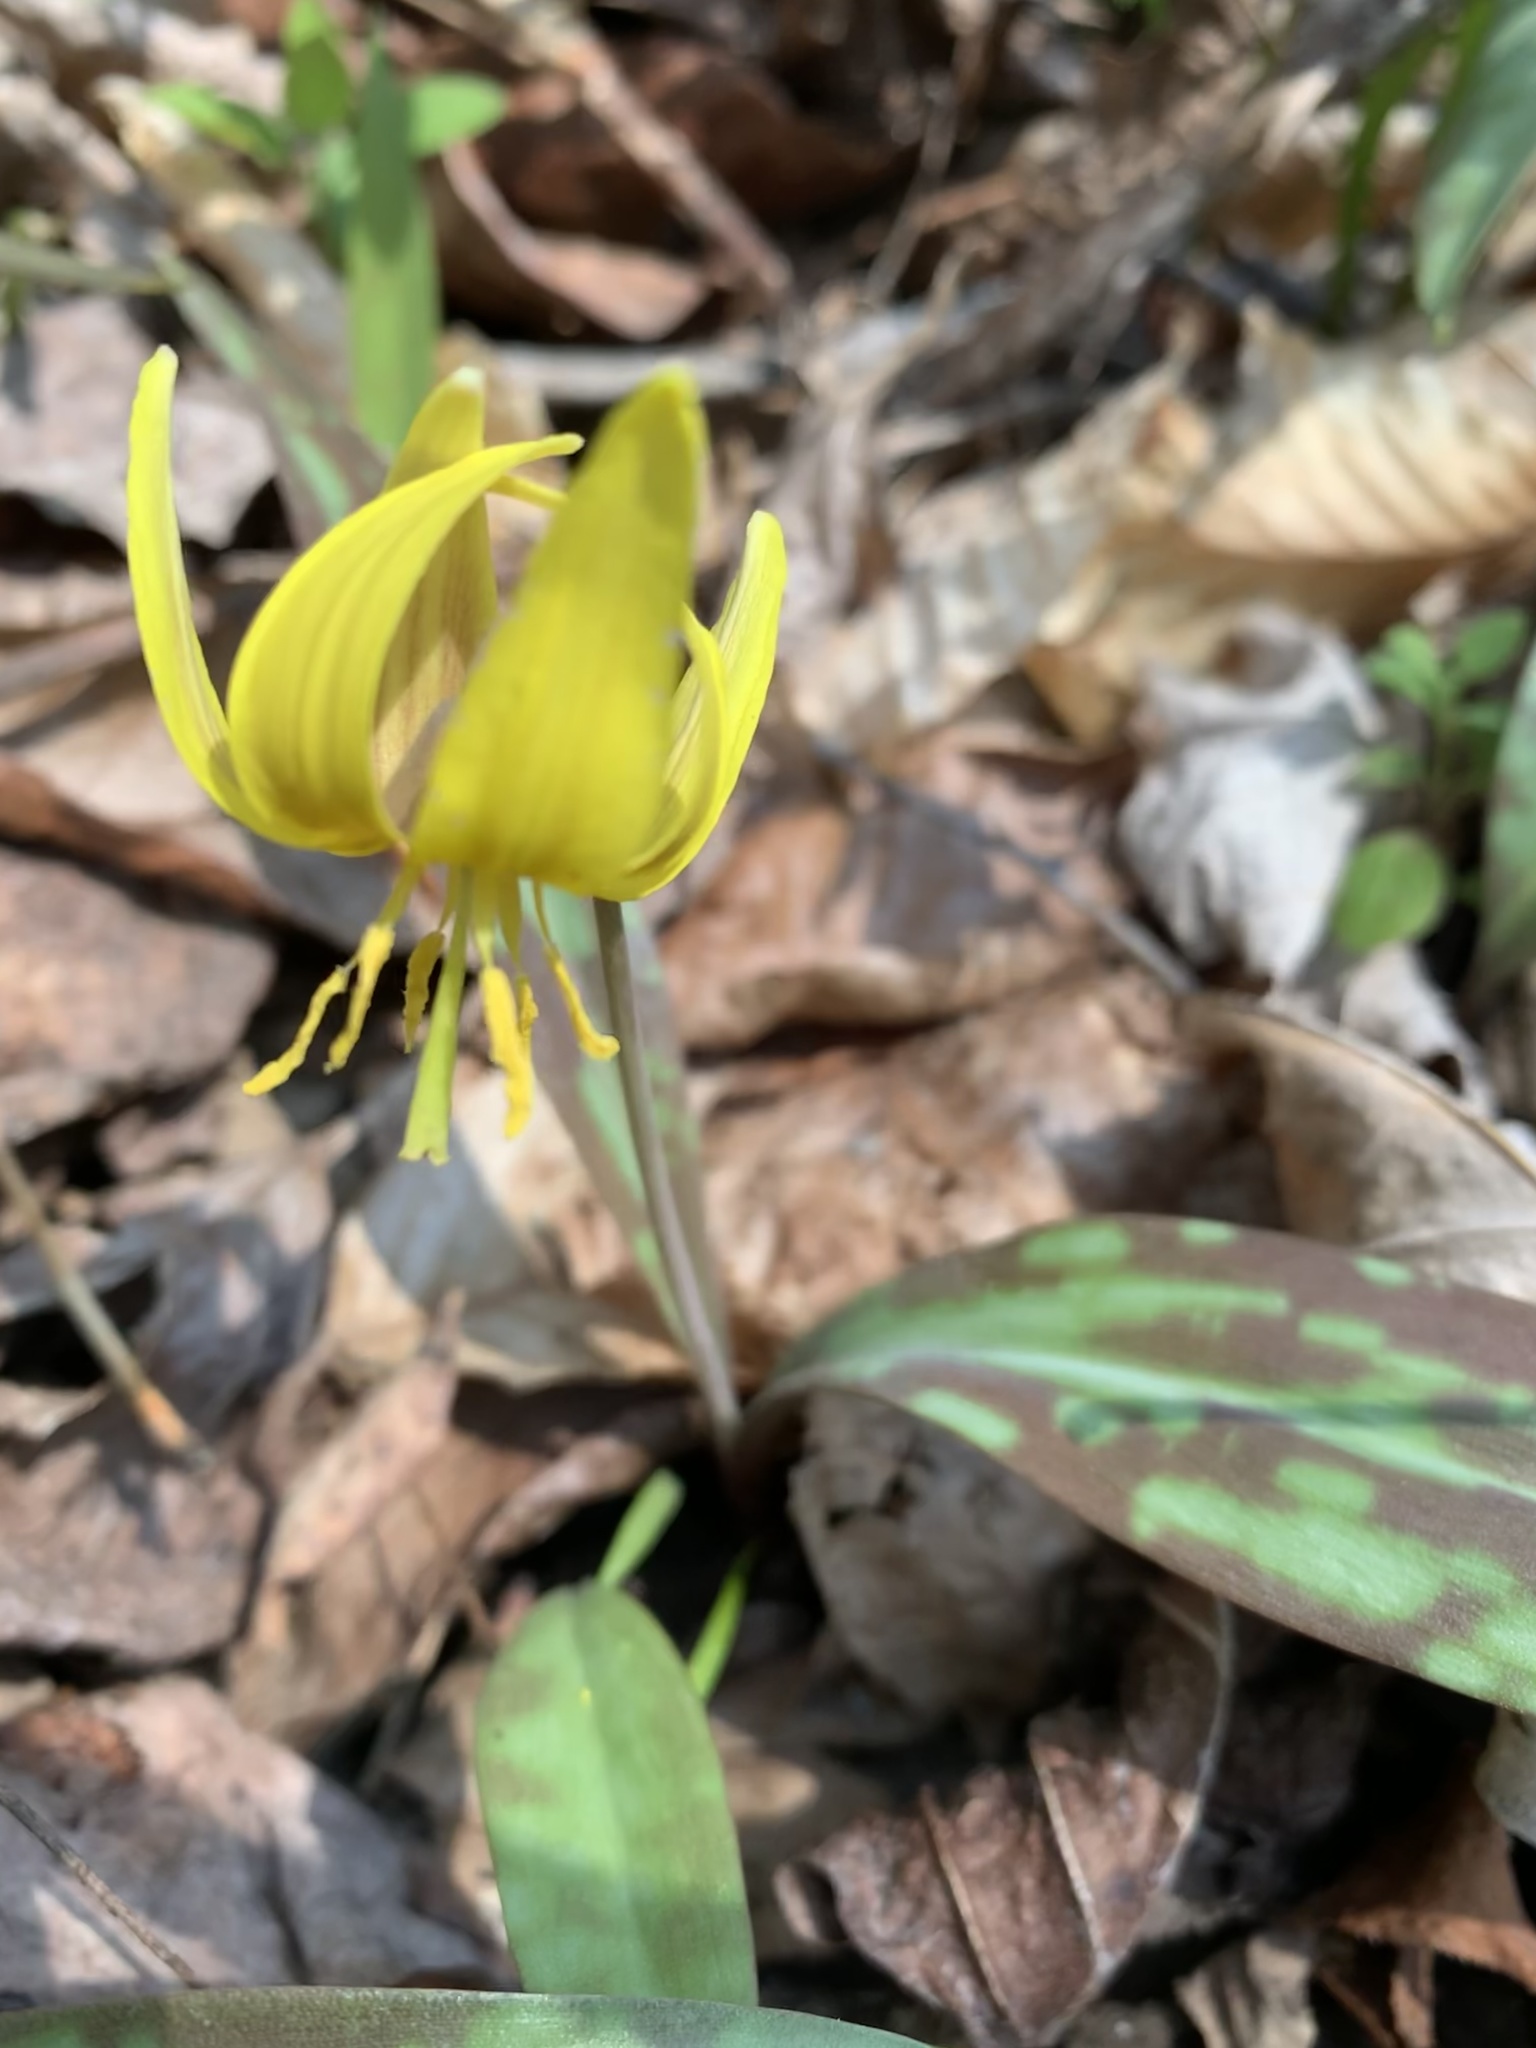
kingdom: Plantae
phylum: Tracheophyta
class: Liliopsida
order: Liliales
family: Liliaceae
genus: Erythronium
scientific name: Erythronium americanum
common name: Yellow adder's-tongue
